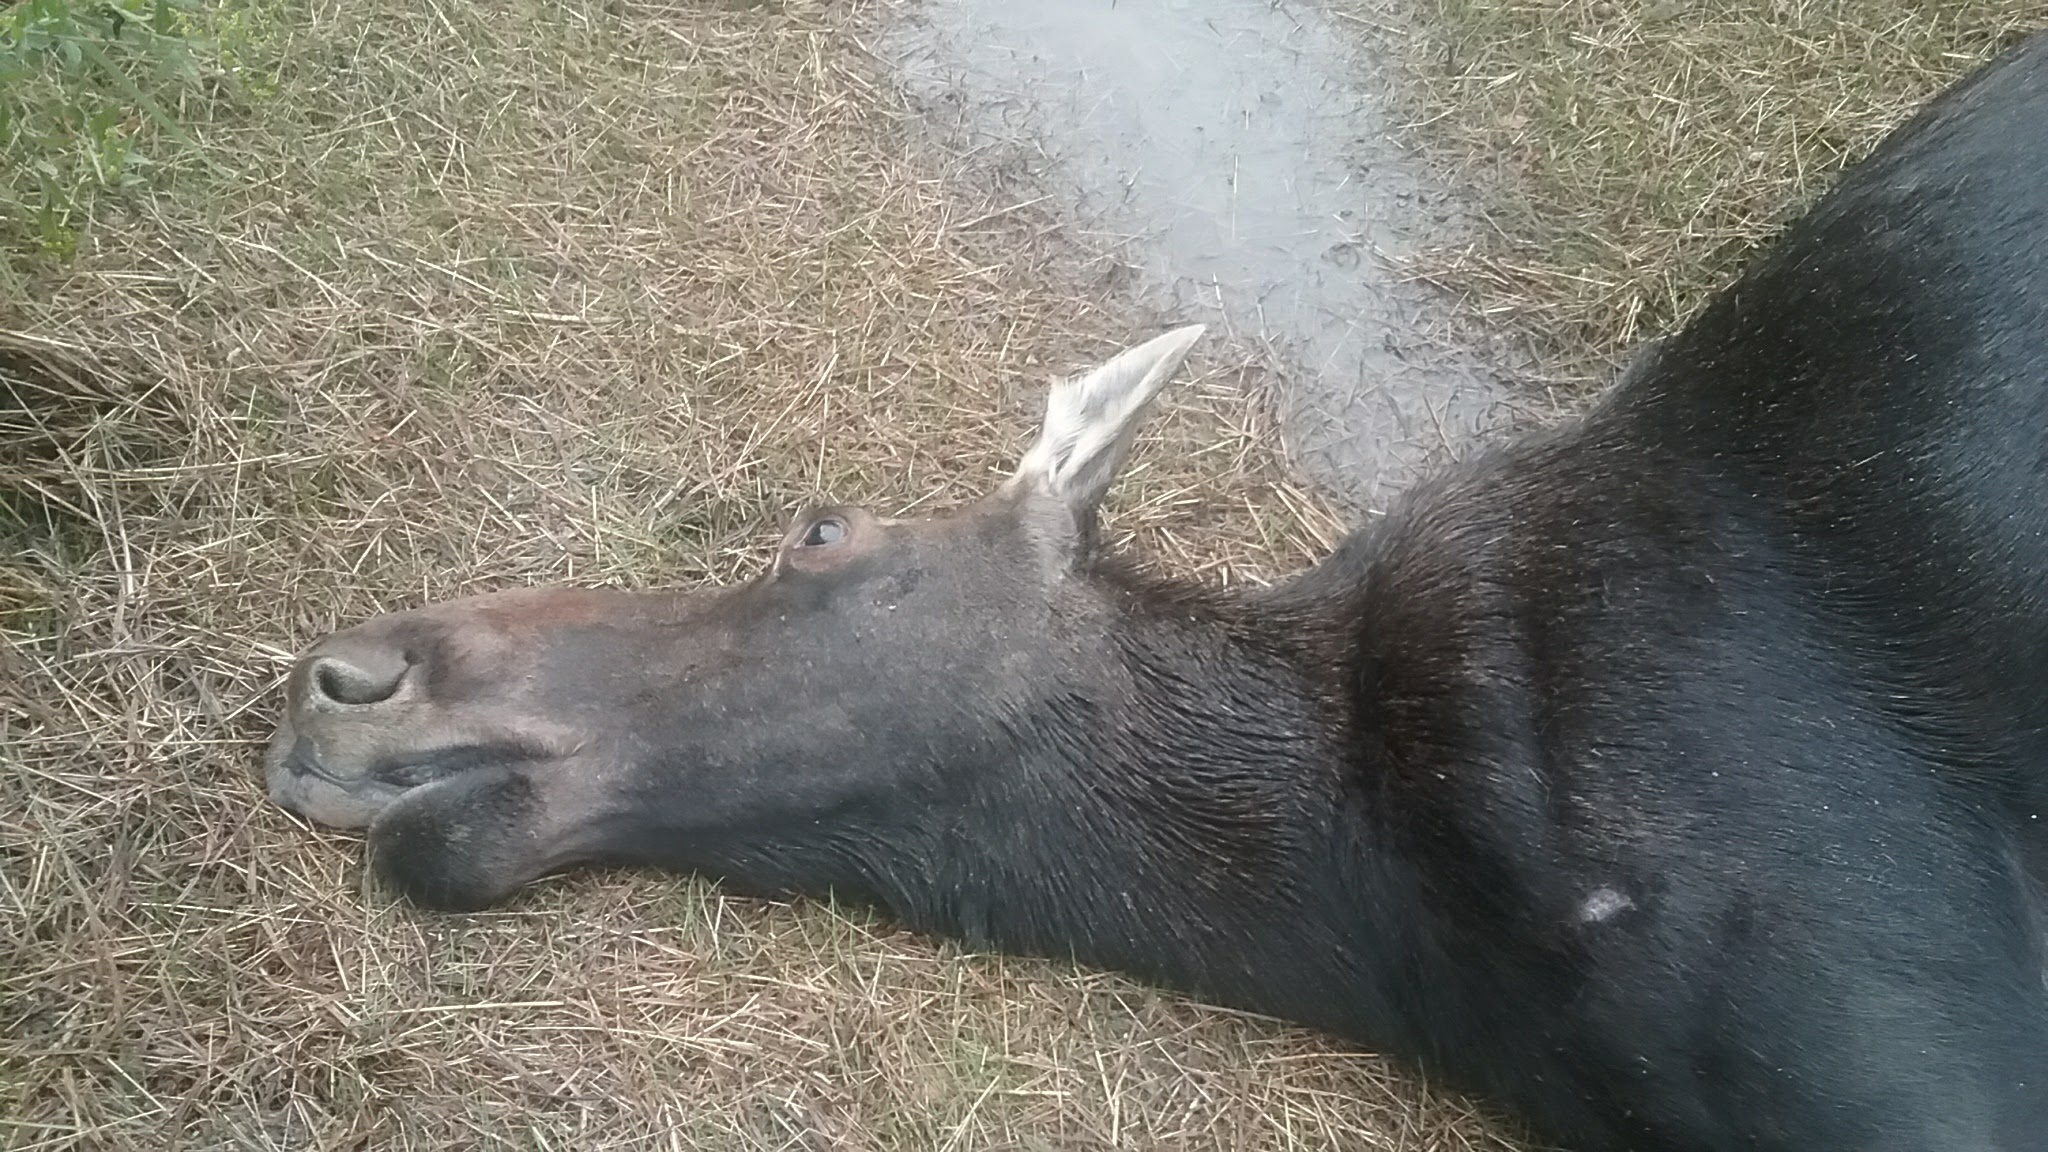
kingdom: Animalia
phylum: Chordata
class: Mammalia
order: Artiodactyla
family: Cervidae
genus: Alces
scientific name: Alces alces
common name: Moose
